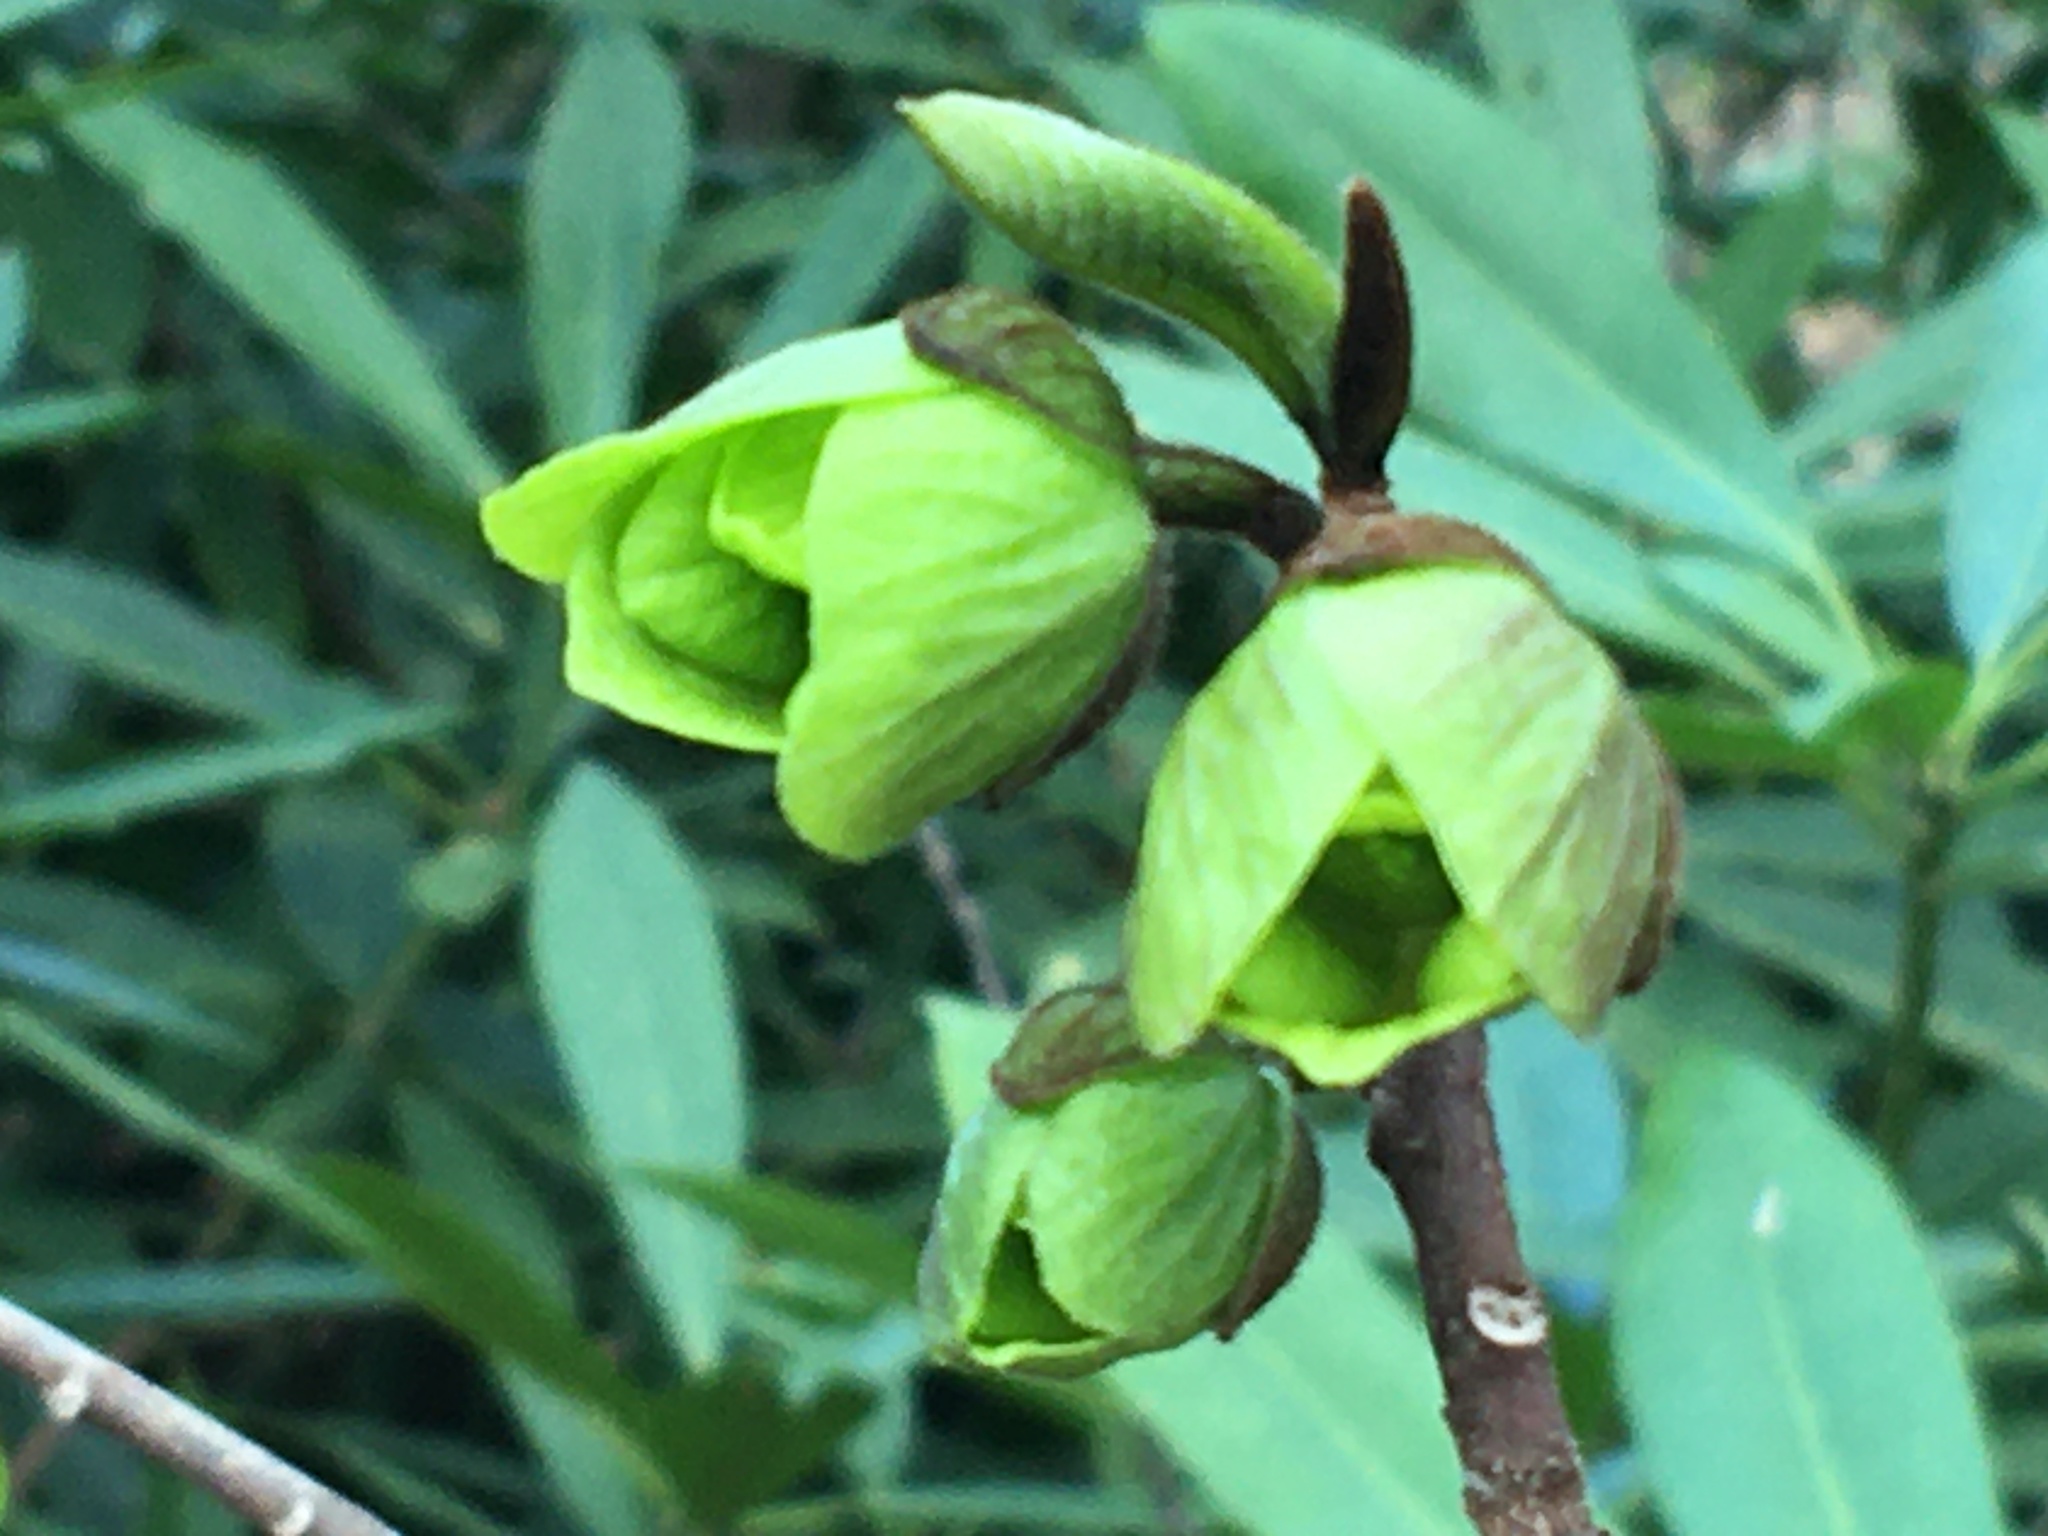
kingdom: Plantae
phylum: Tracheophyta
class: Magnoliopsida
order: Magnoliales
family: Annonaceae
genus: Asimina
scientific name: Asimina triloba
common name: Dog-banana
